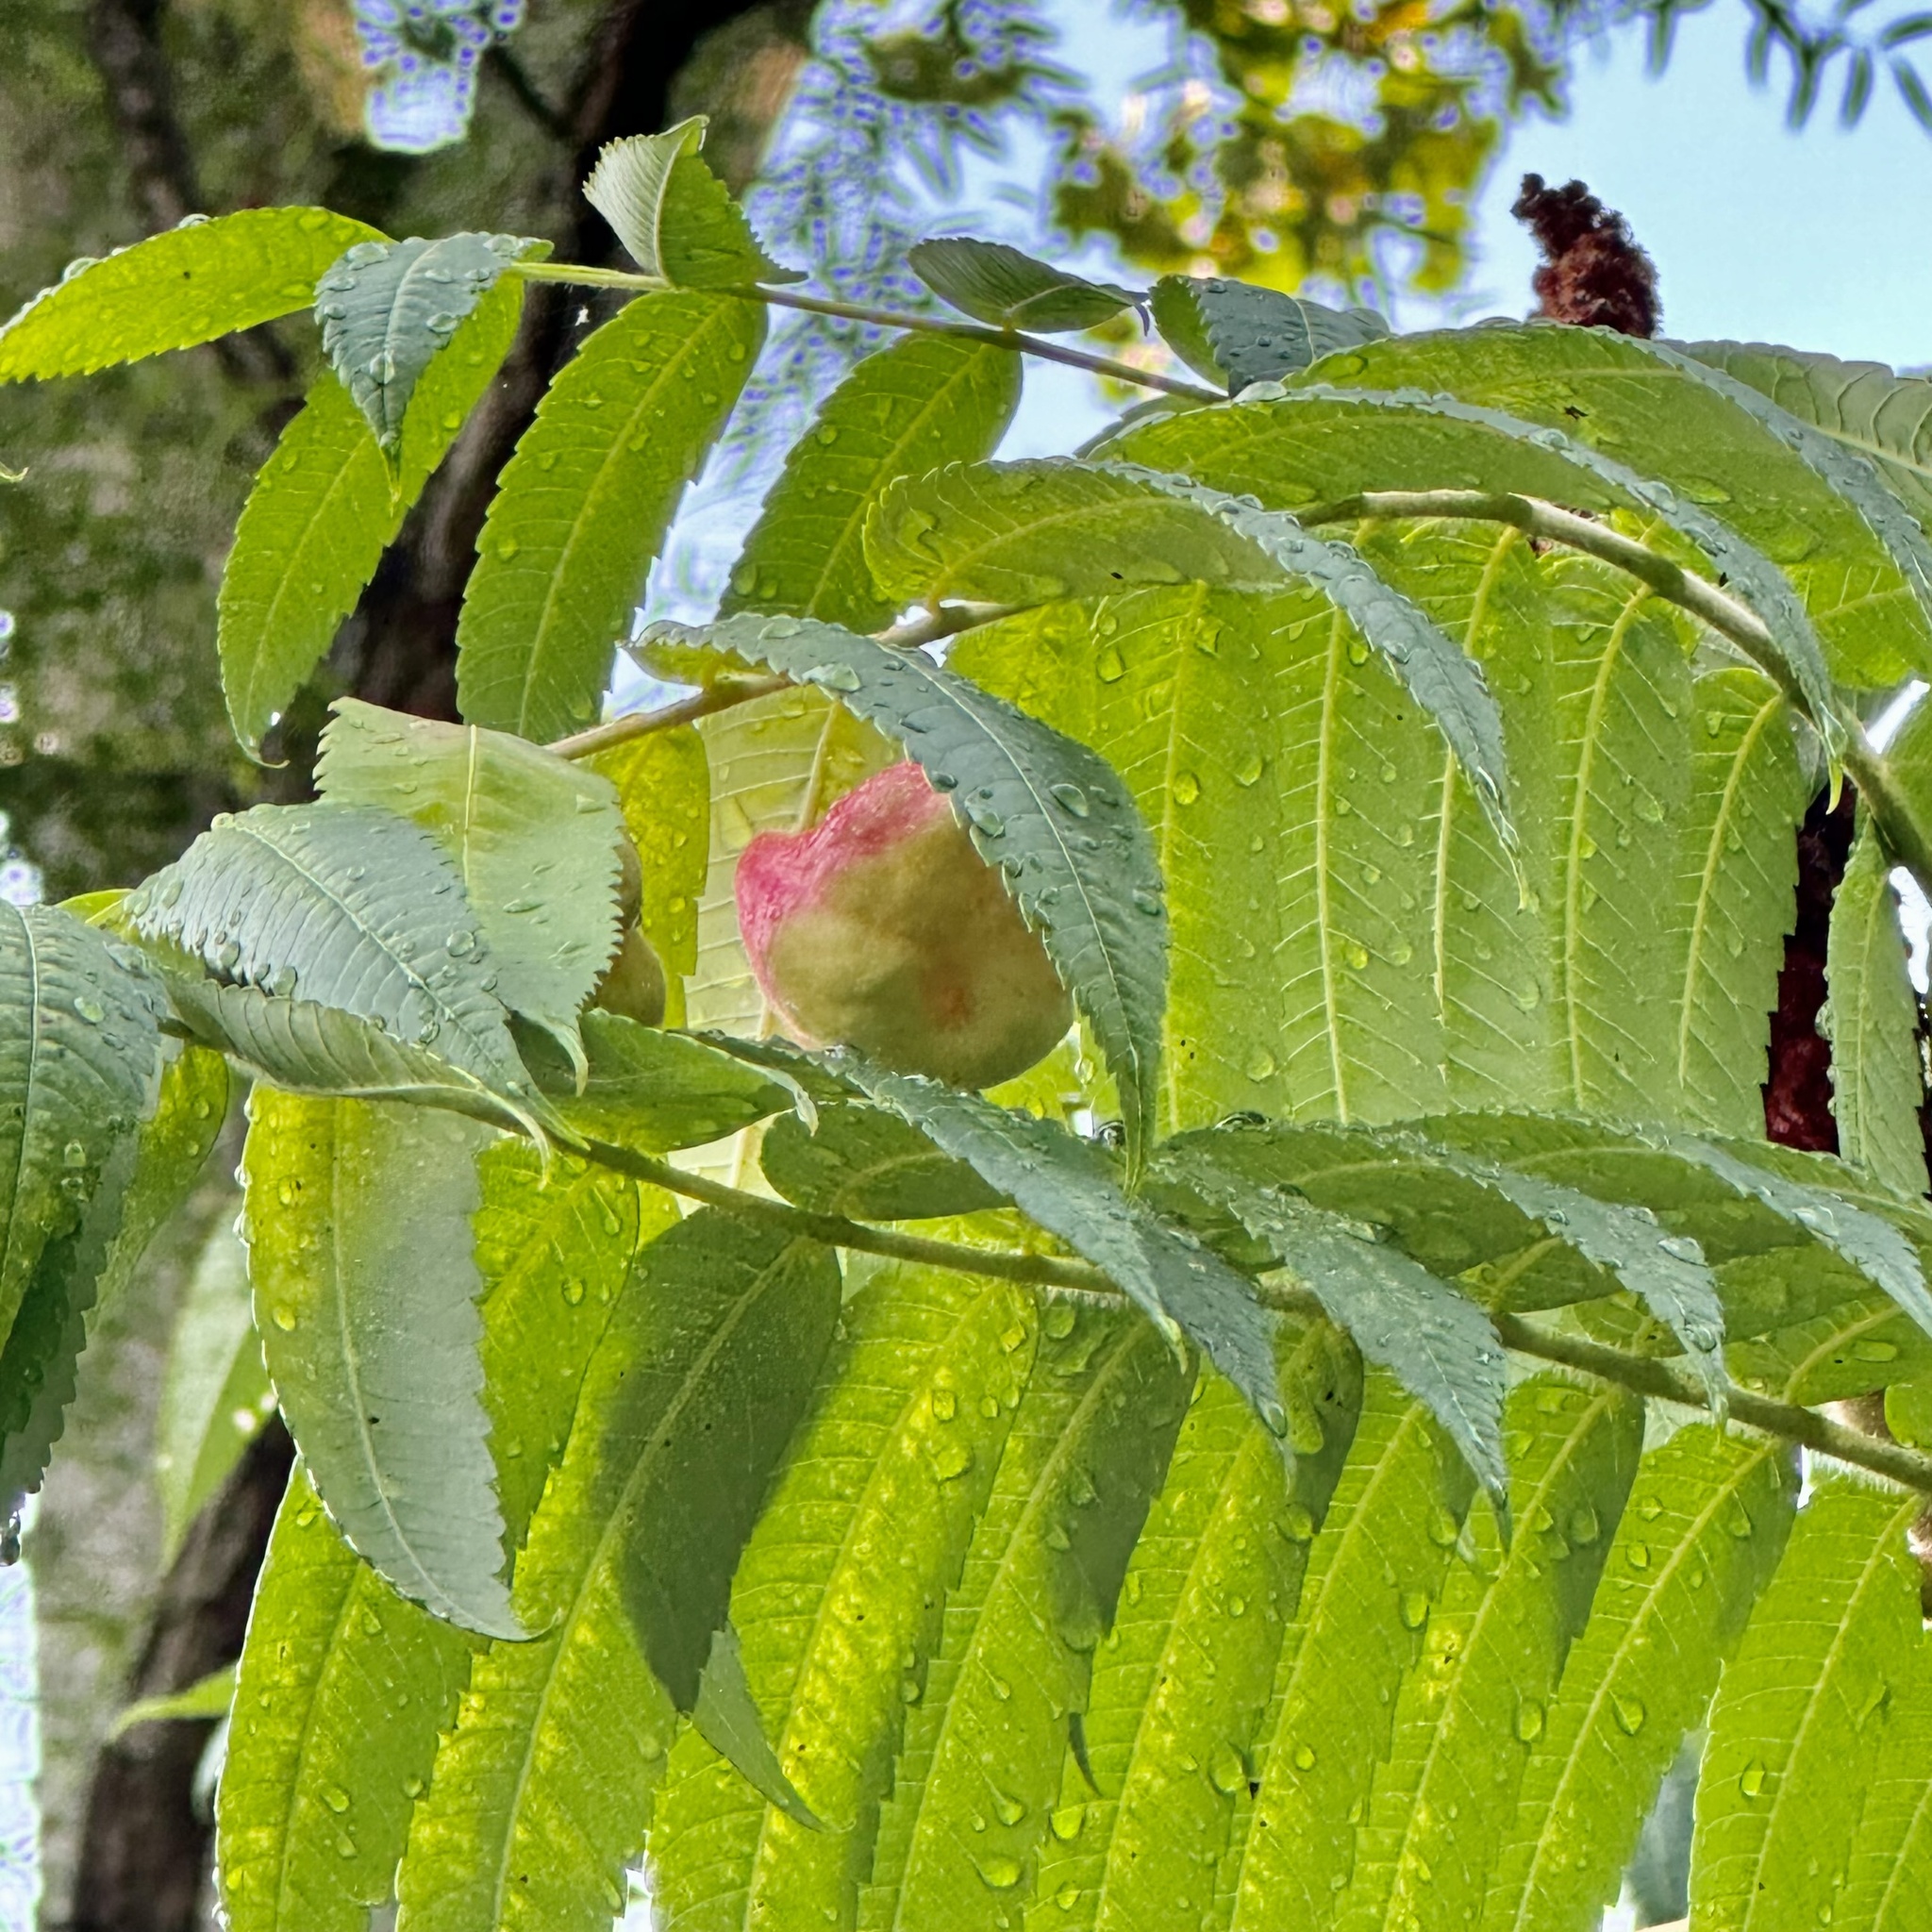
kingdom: Animalia
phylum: Arthropoda
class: Insecta
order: Hemiptera
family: Aphididae
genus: Melaphis
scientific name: Melaphis rhois
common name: Sumac gall aphid
